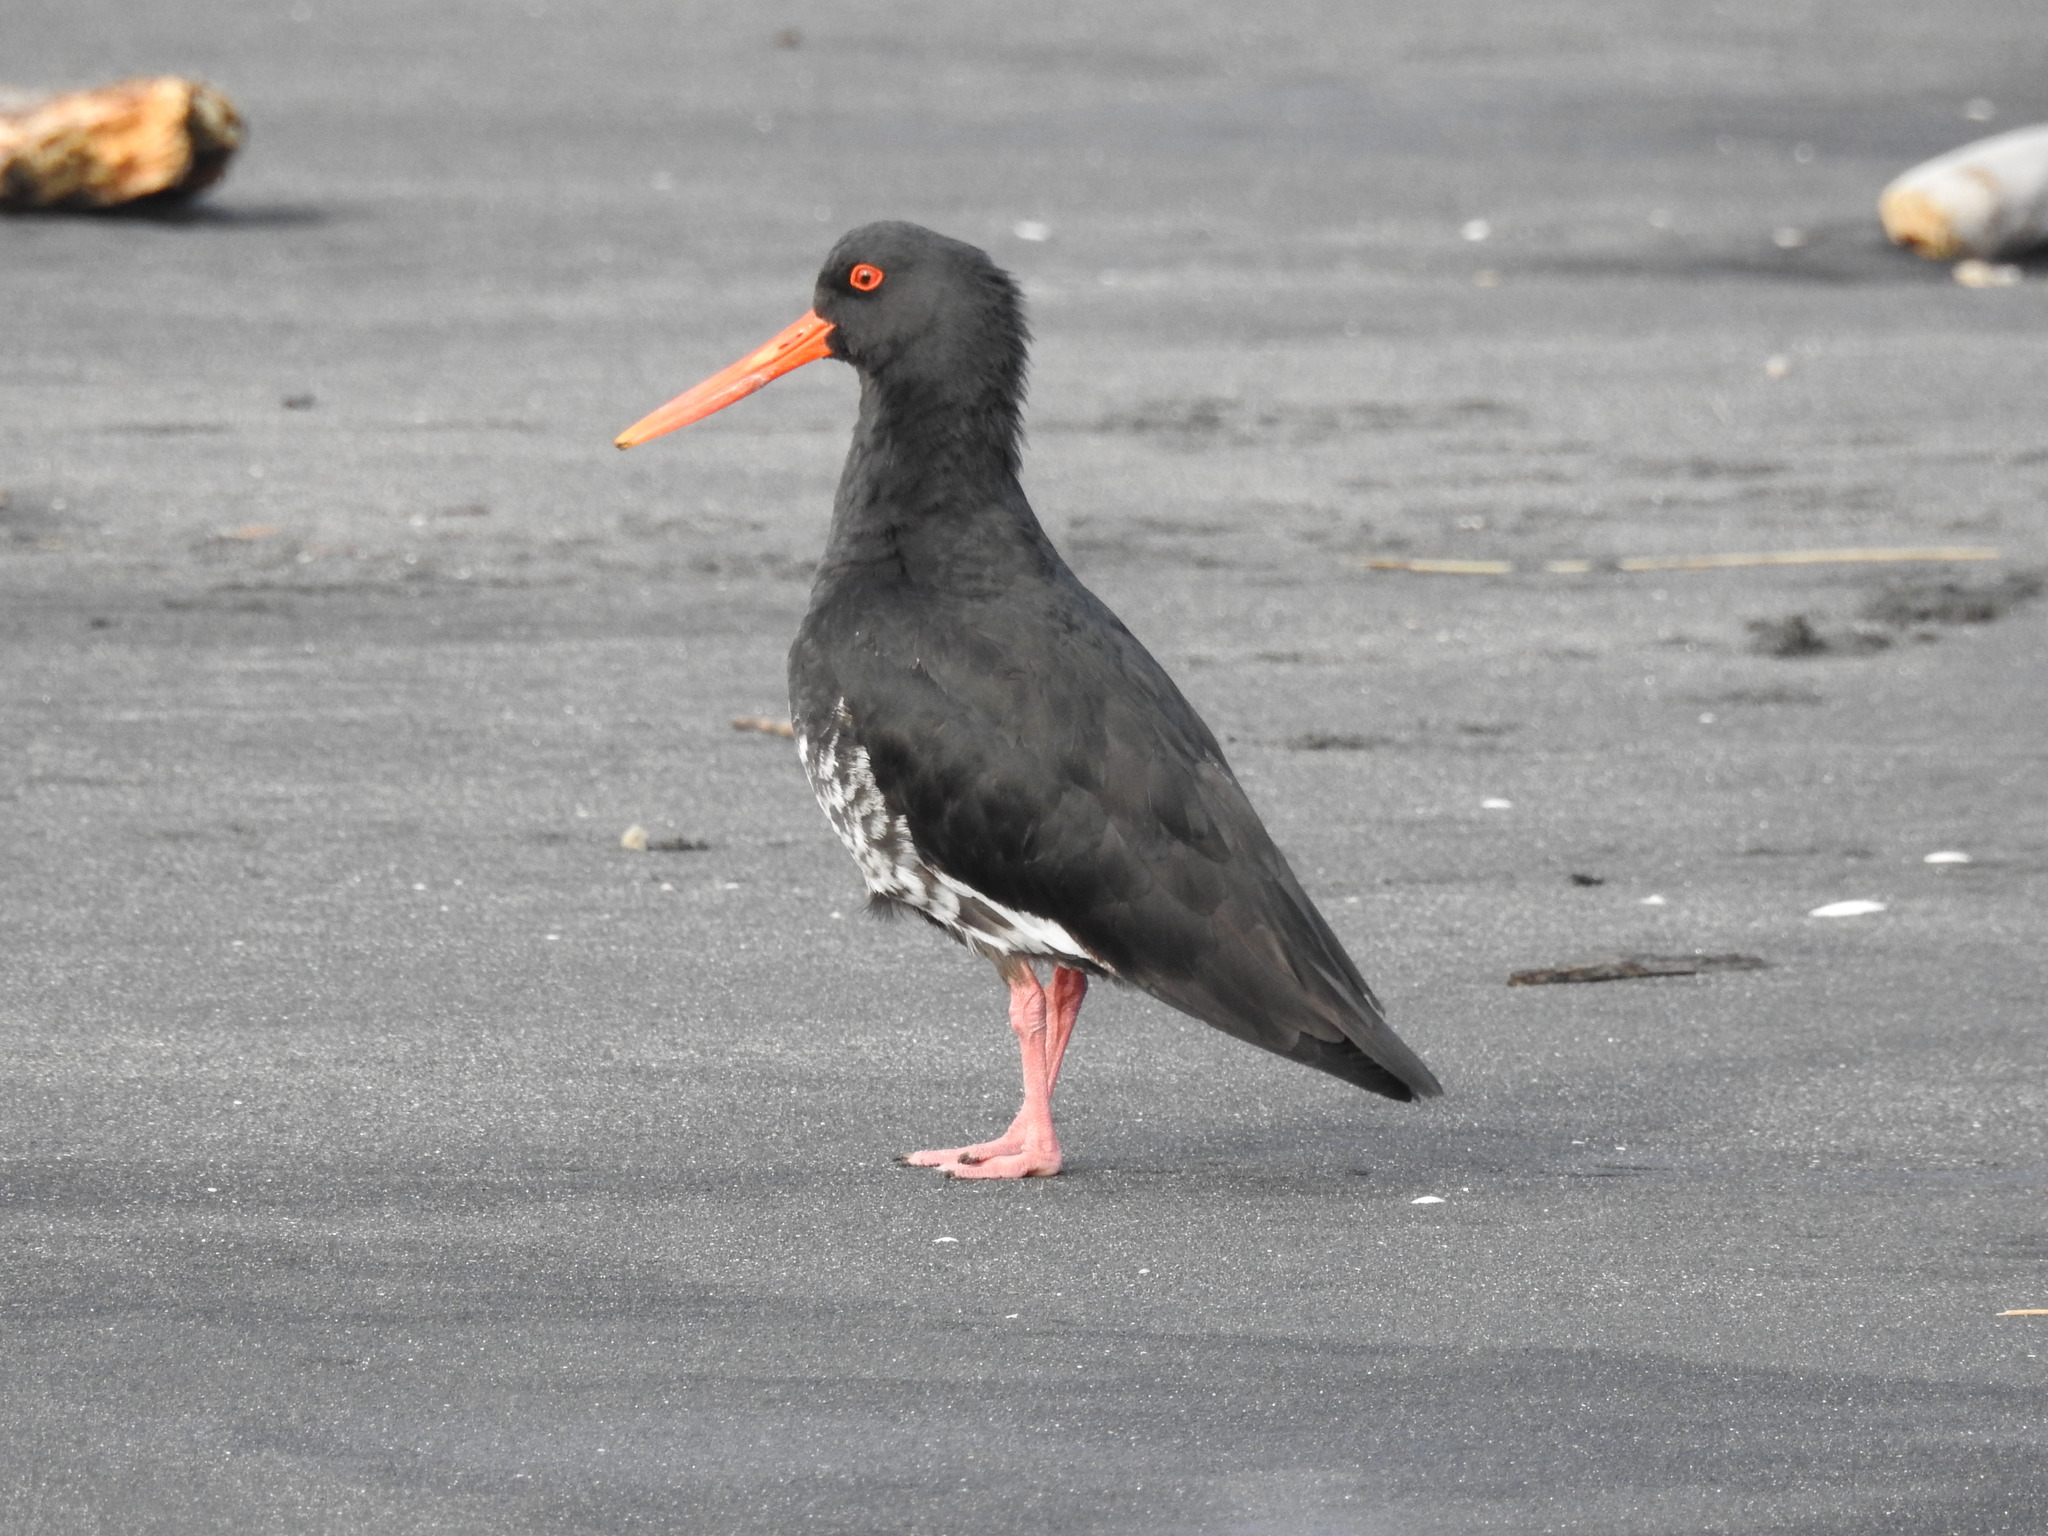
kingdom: Animalia
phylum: Chordata
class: Aves
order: Charadriiformes
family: Haematopodidae
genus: Haematopus
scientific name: Haematopus unicolor
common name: Variable oystercatcher
